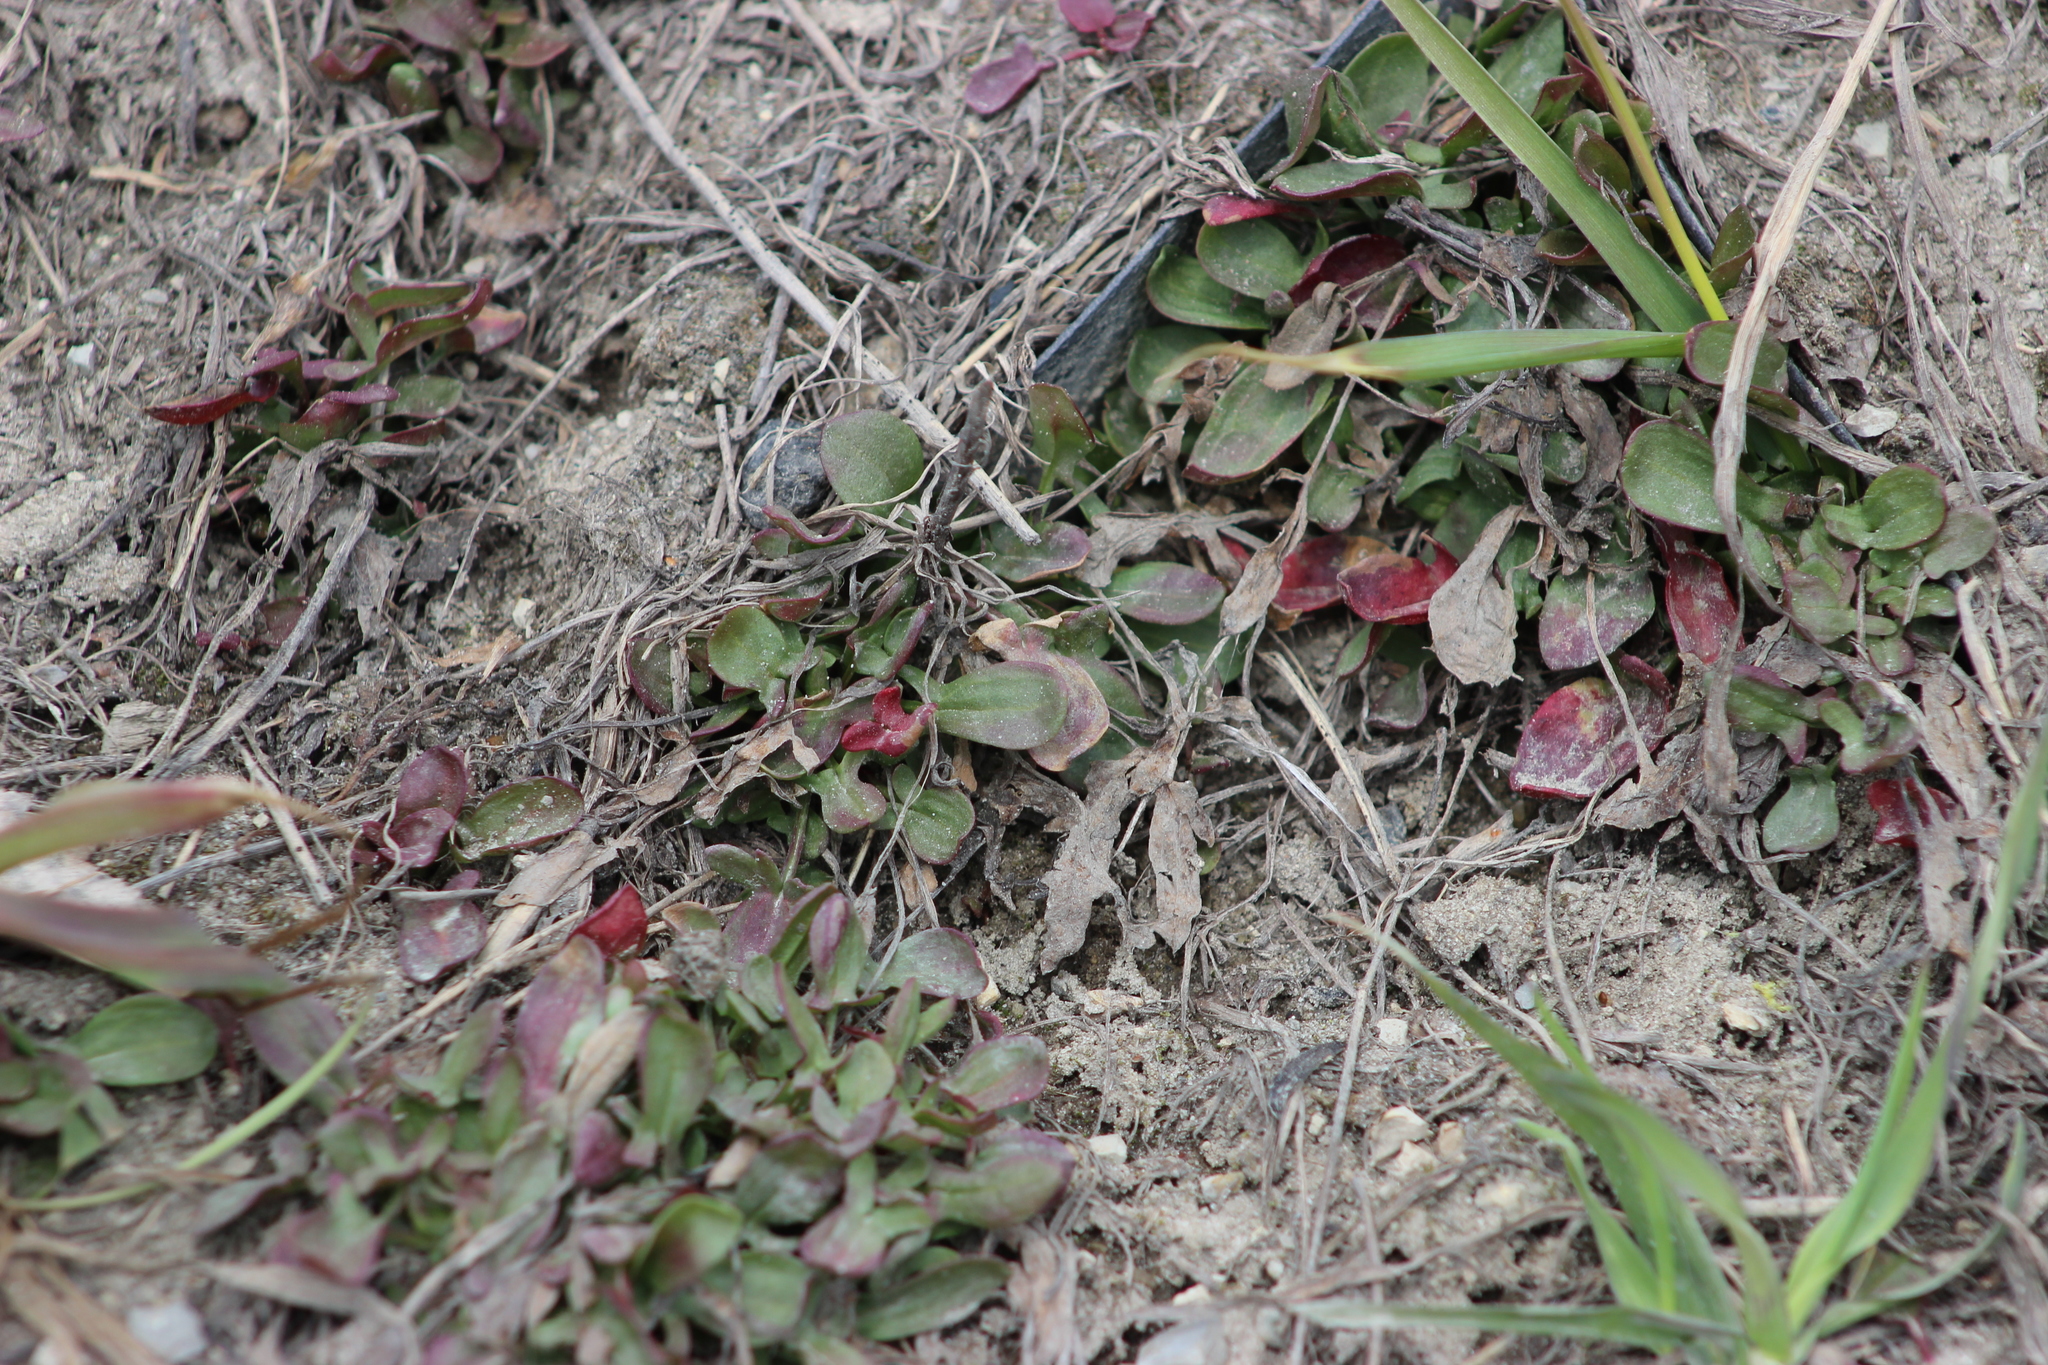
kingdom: Plantae
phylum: Tracheophyta
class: Magnoliopsida
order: Caryophyllales
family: Polygonaceae
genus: Rumex
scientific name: Rumex acetosella
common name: Common sheep sorrel
